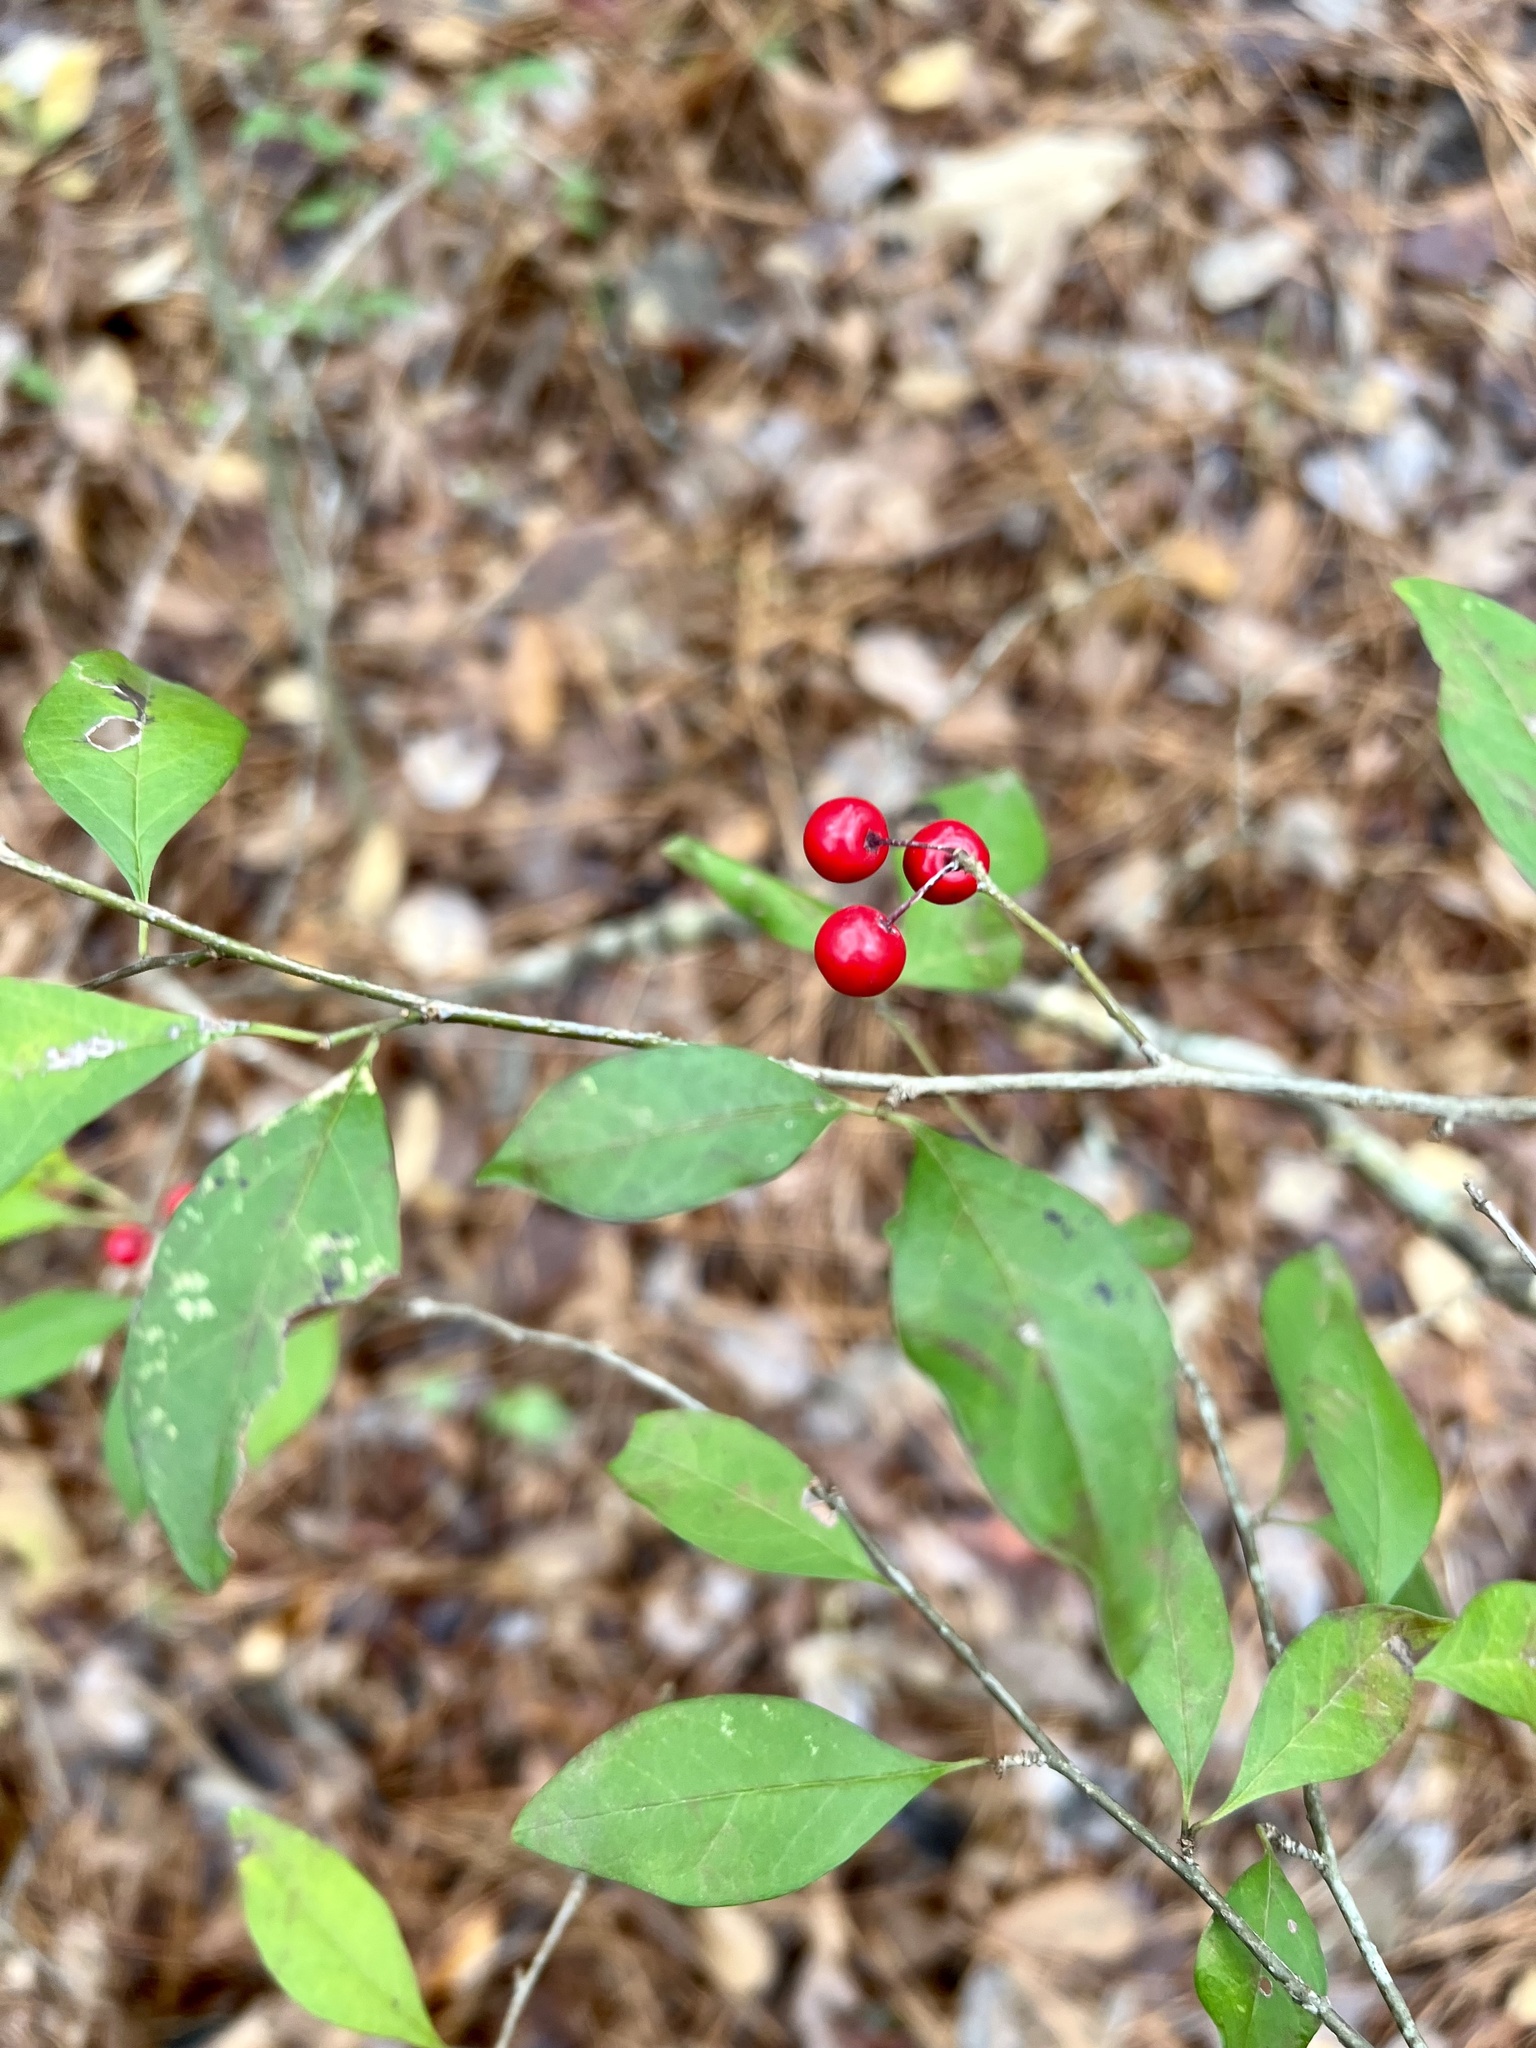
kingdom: Plantae
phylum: Tracheophyta
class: Magnoliopsida
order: Aquifoliales
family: Aquifoliaceae
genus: Ilex
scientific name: Ilex longipes
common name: Georgia holly
